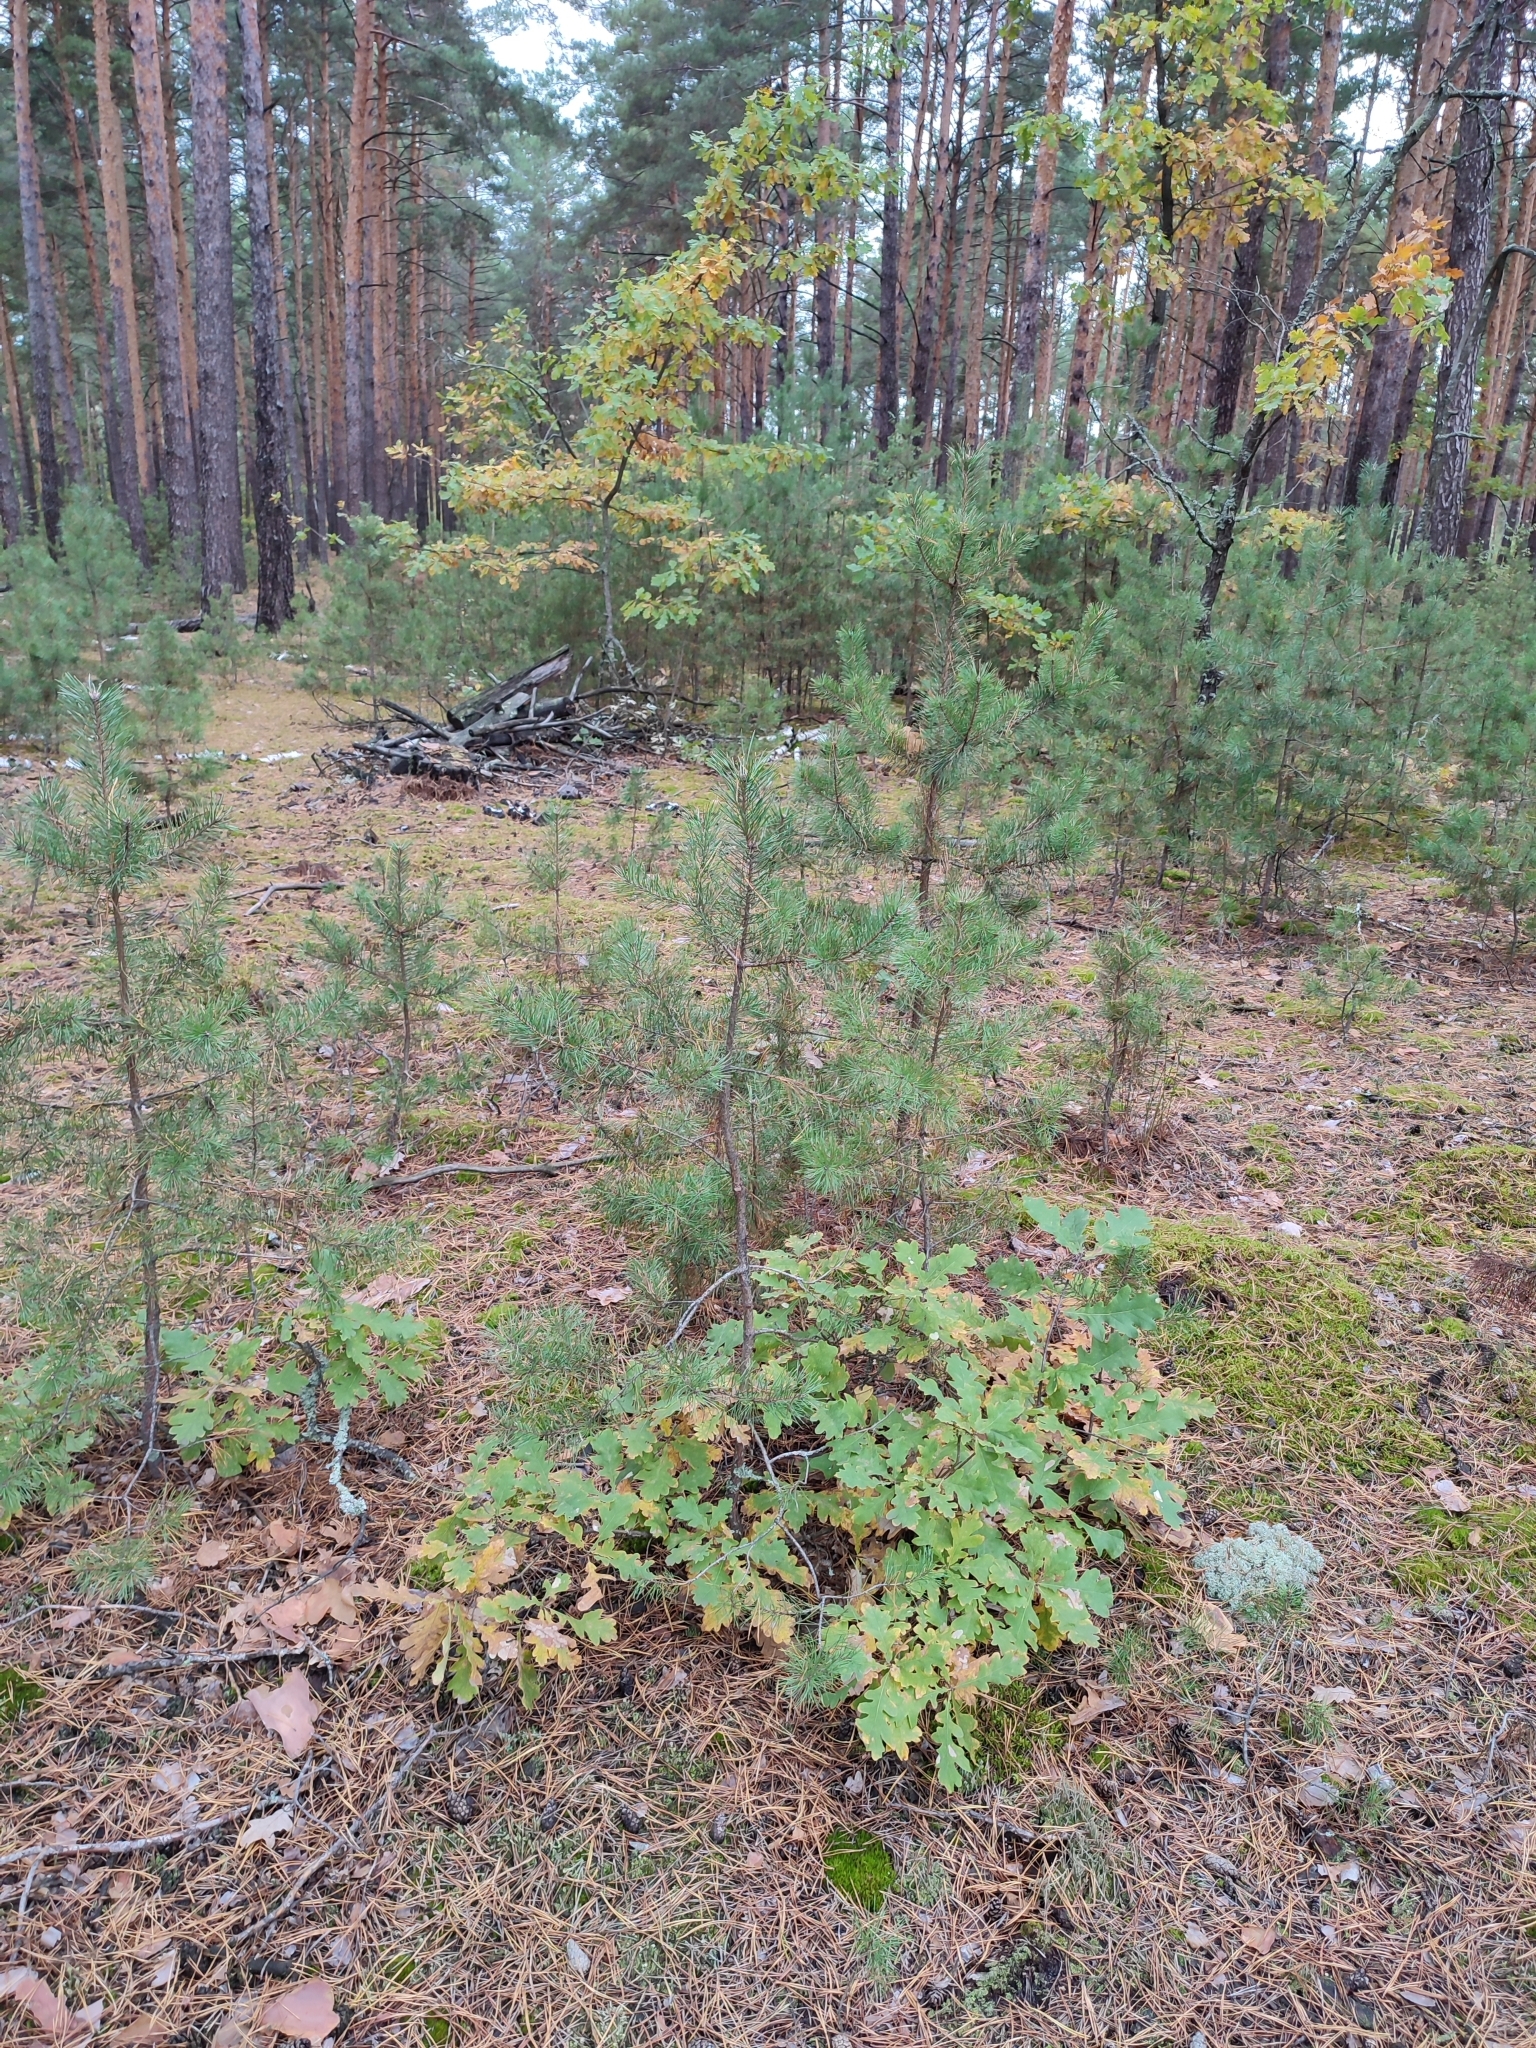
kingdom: Plantae
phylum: Tracheophyta
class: Magnoliopsida
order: Fagales
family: Fagaceae
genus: Quercus
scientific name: Quercus robur
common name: Pedunculate oak
